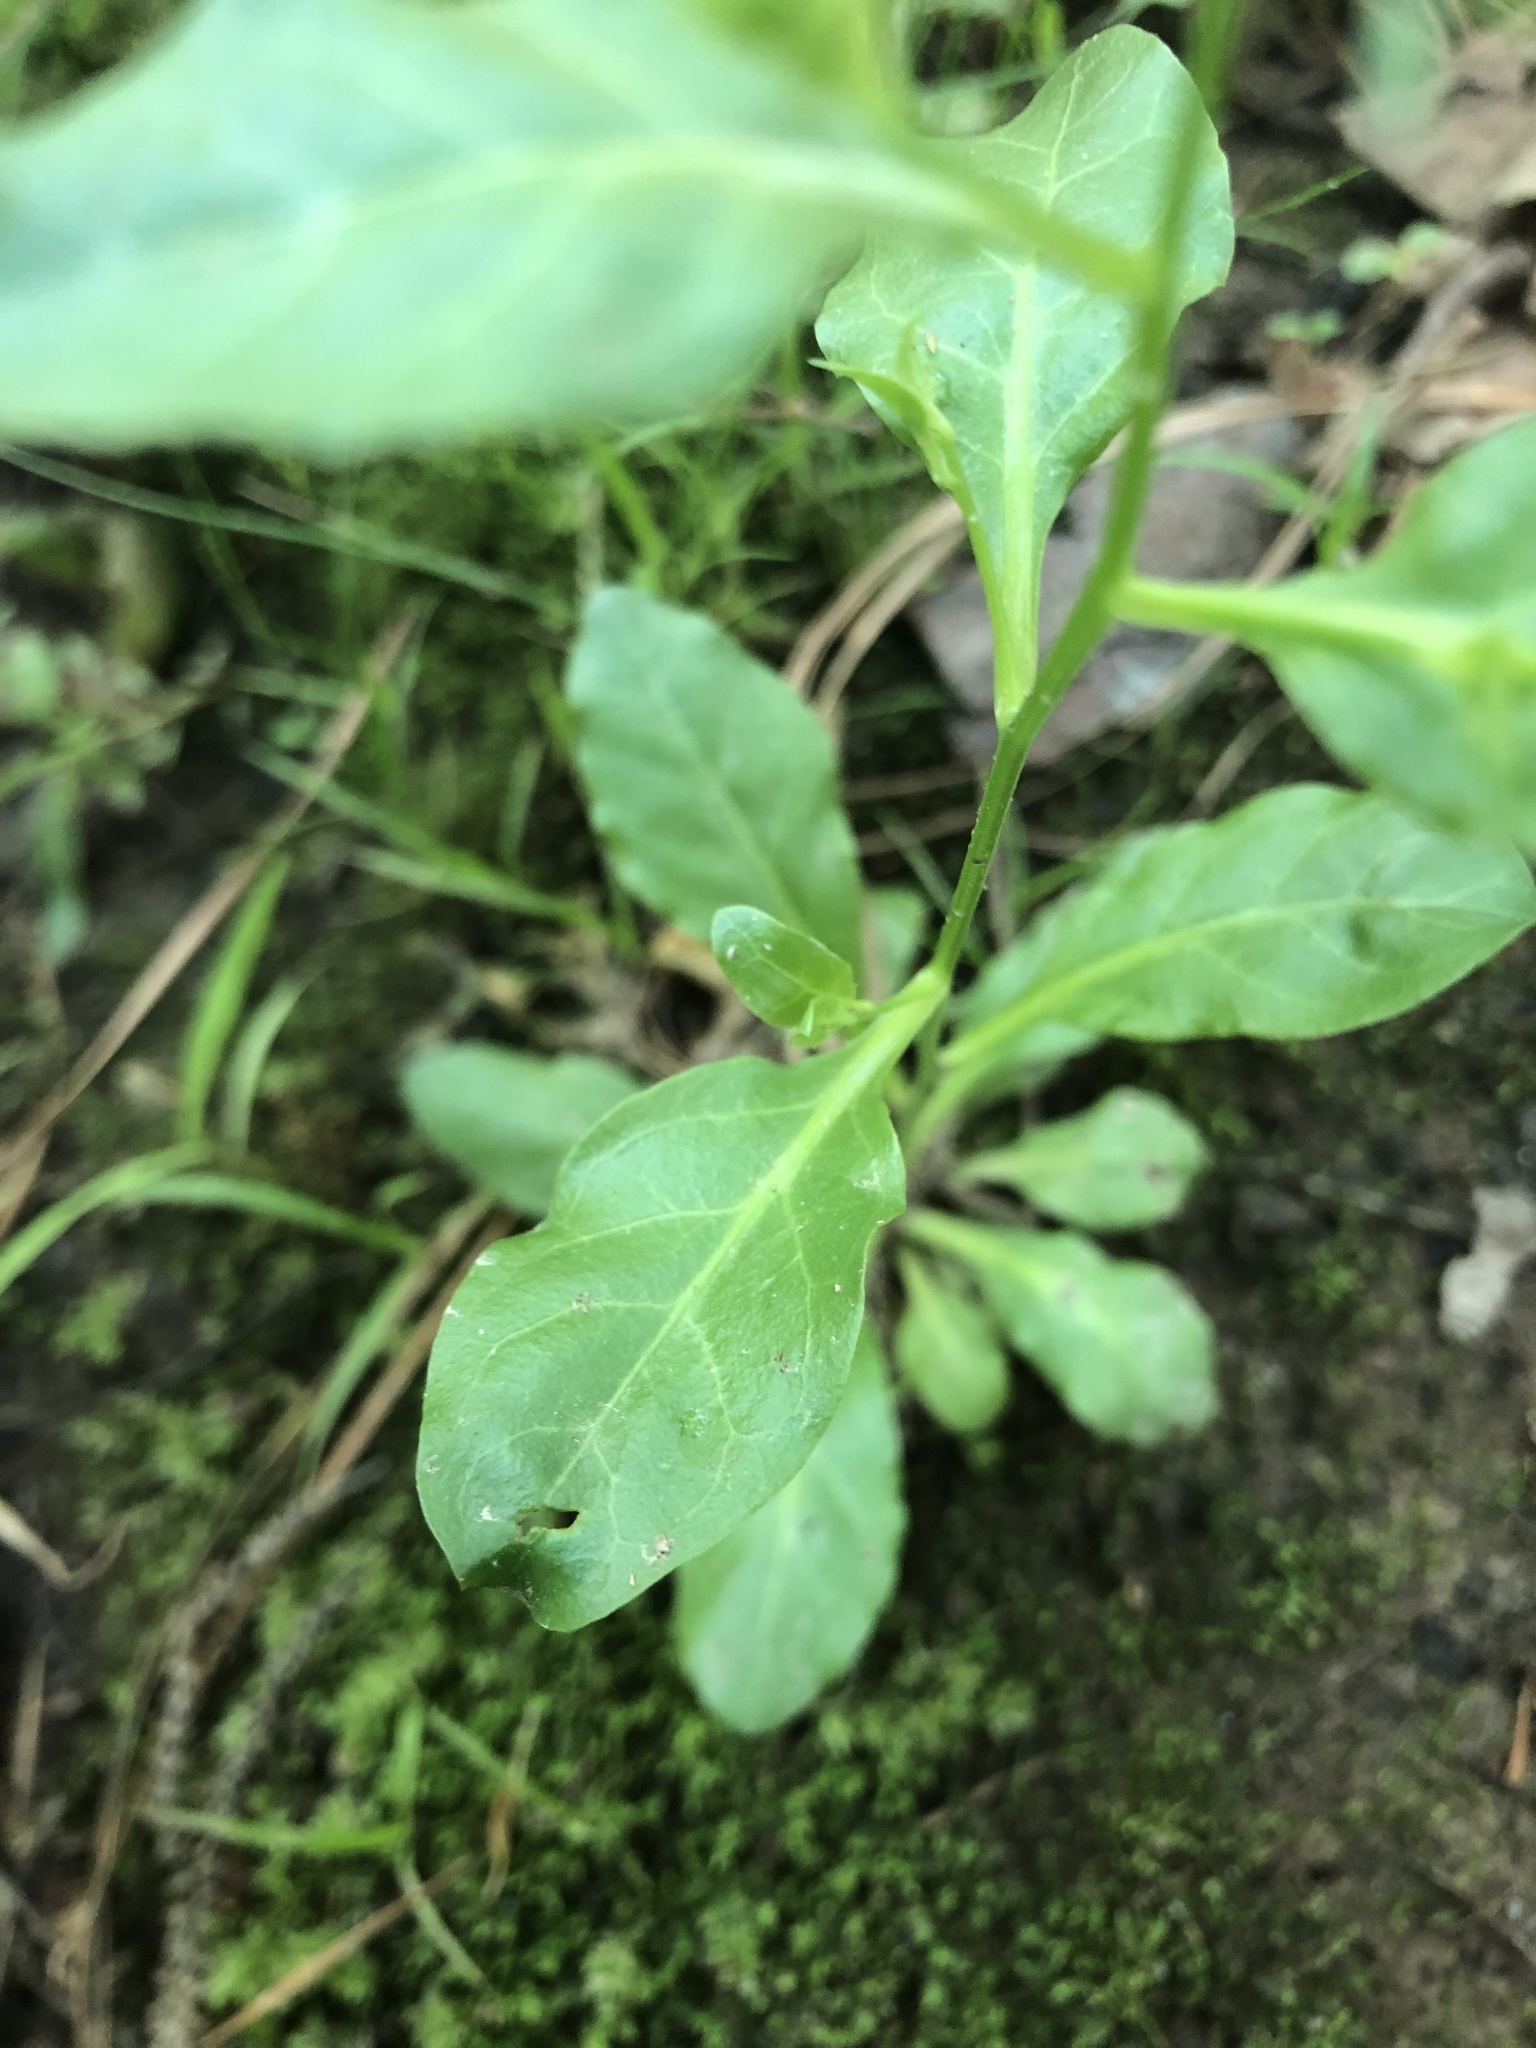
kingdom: Plantae
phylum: Tracheophyta
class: Magnoliopsida
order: Ericales
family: Primulaceae
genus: Samolus
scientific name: Samolus parviflorus
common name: False water pimpernel
